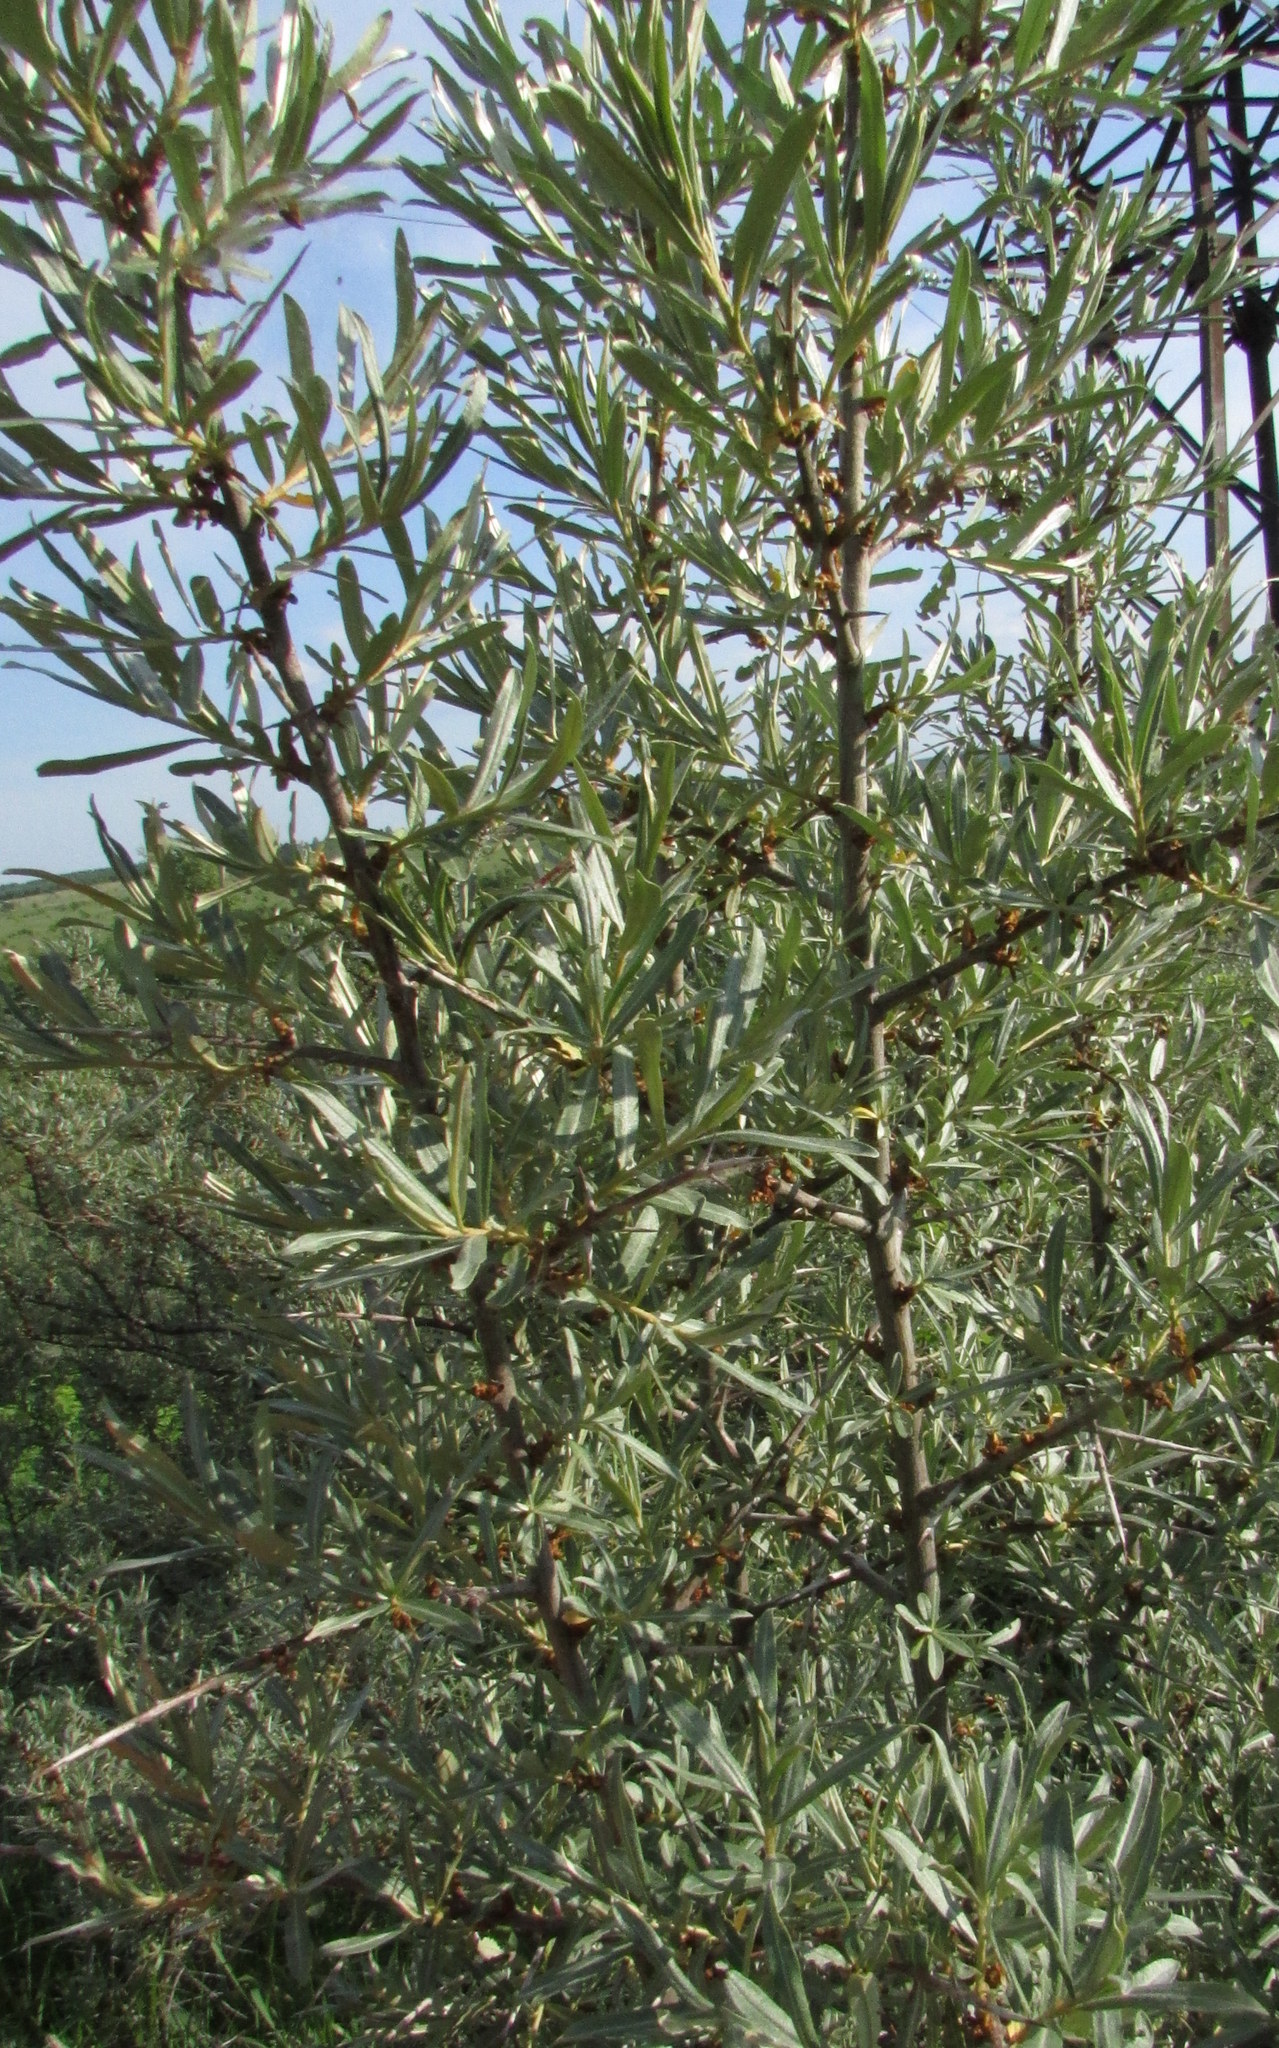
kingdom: Plantae
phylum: Tracheophyta
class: Magnoliopsida
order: Rosales
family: Elaeagnaceae
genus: Hippophae
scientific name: Hippophae rhamnoides
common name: Sea-buckthorn
